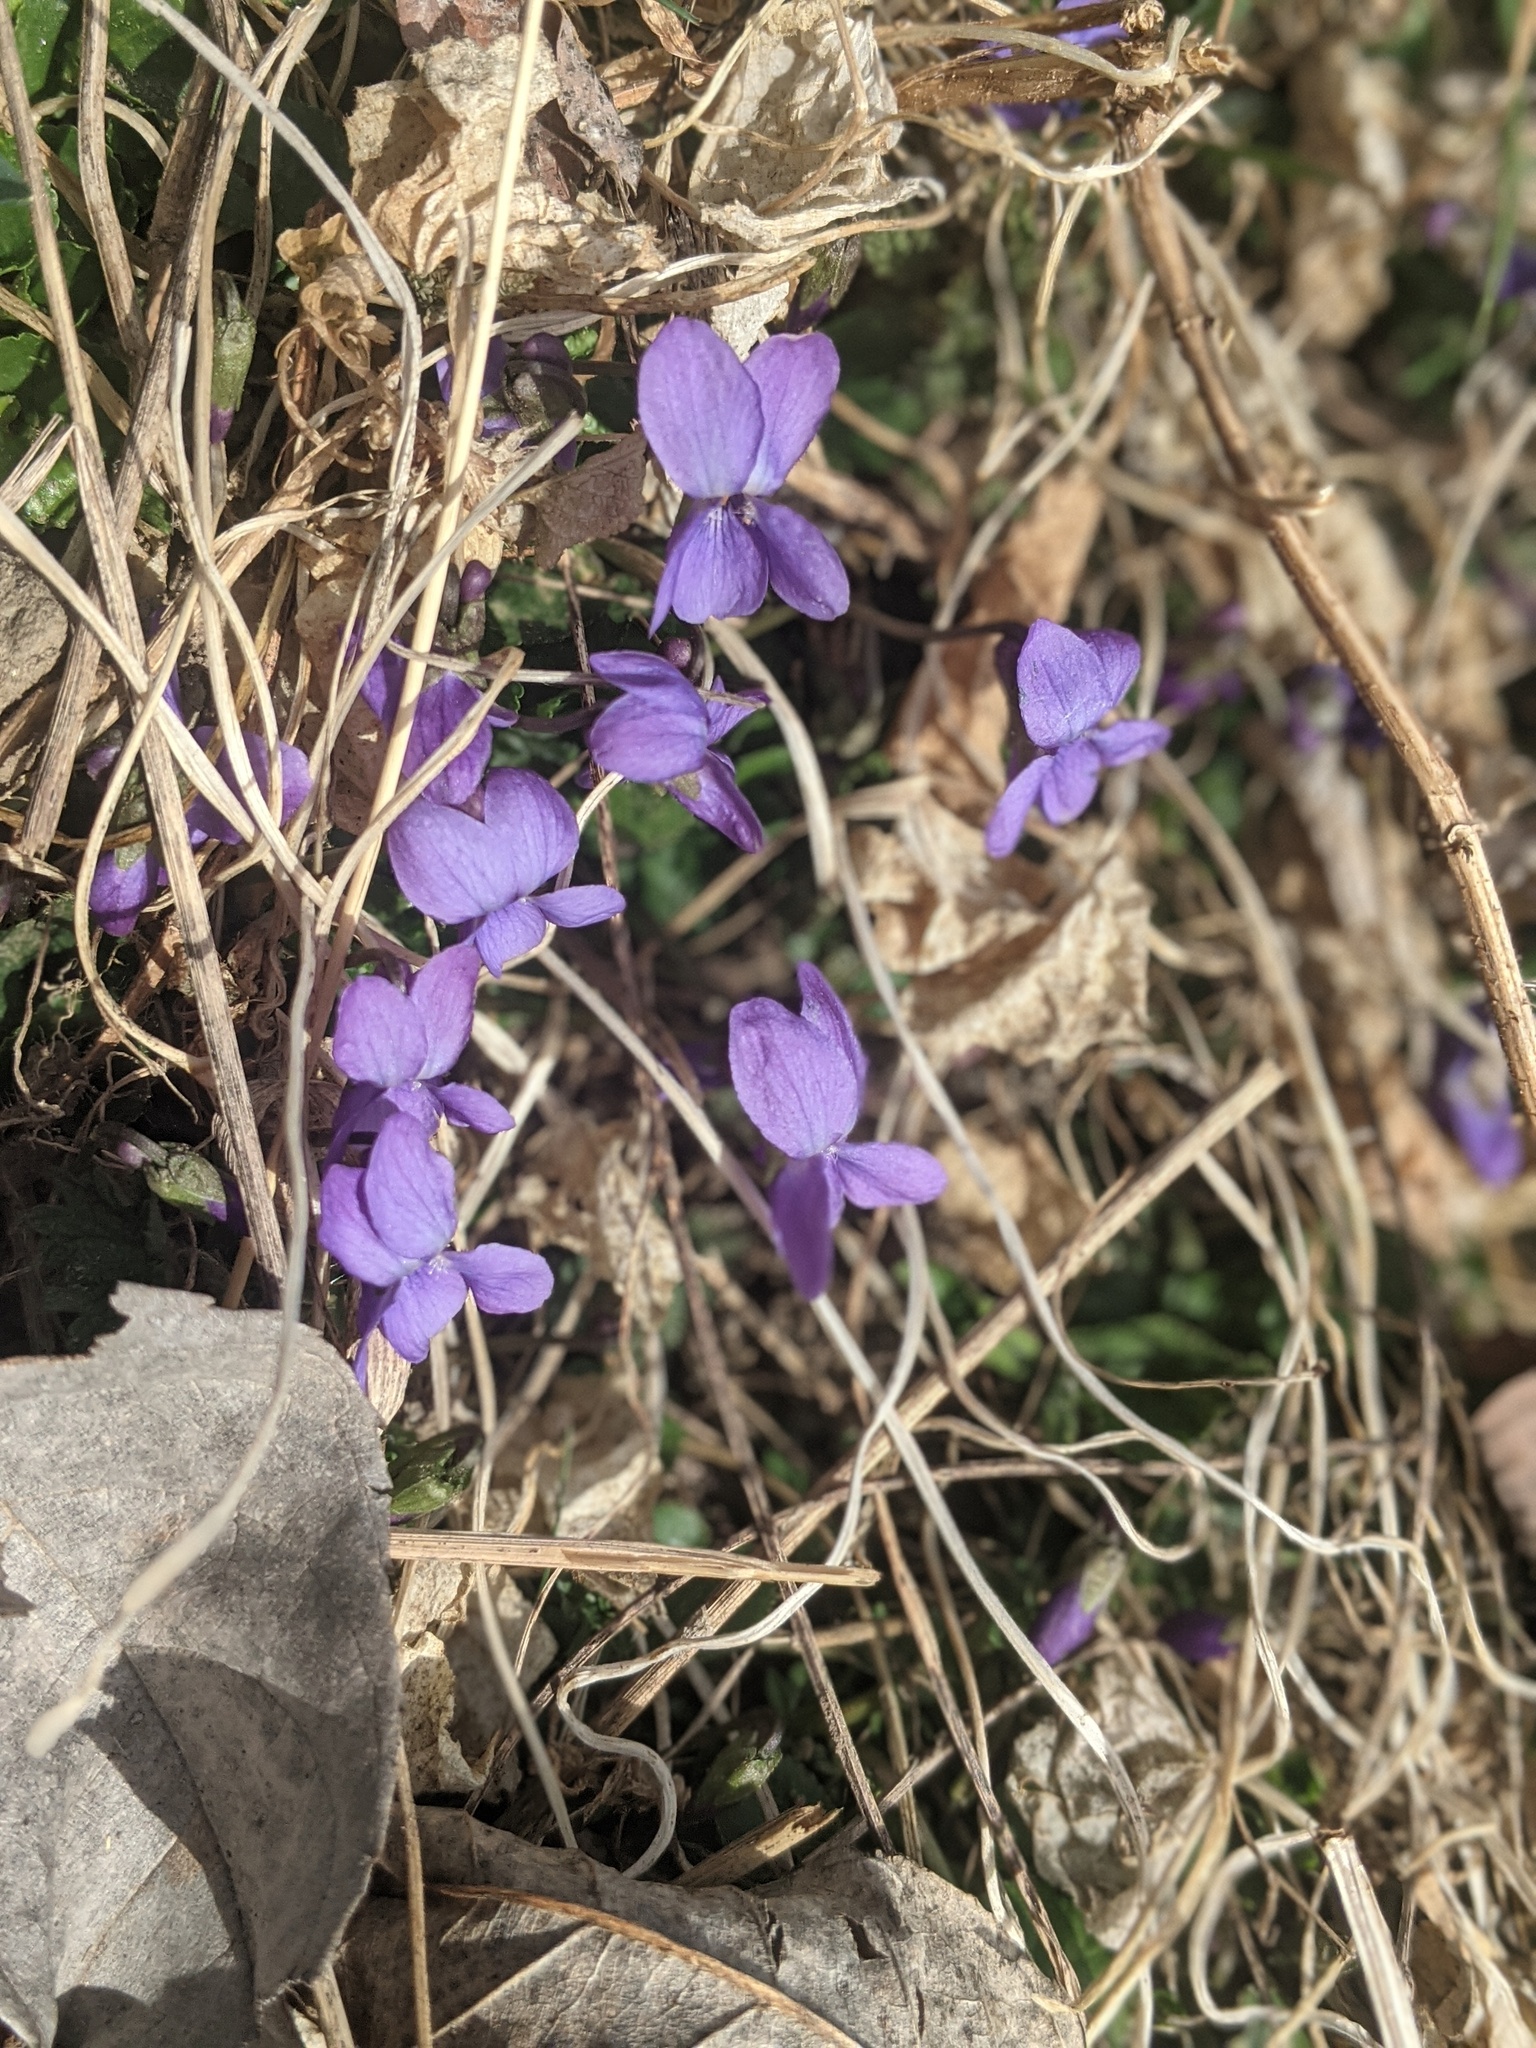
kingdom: Plantae
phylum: Tracheophyta
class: Magnoliopsida
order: Malpighiales
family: Violaceae
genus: Viola
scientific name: Viola hirta
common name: Hairy violet
